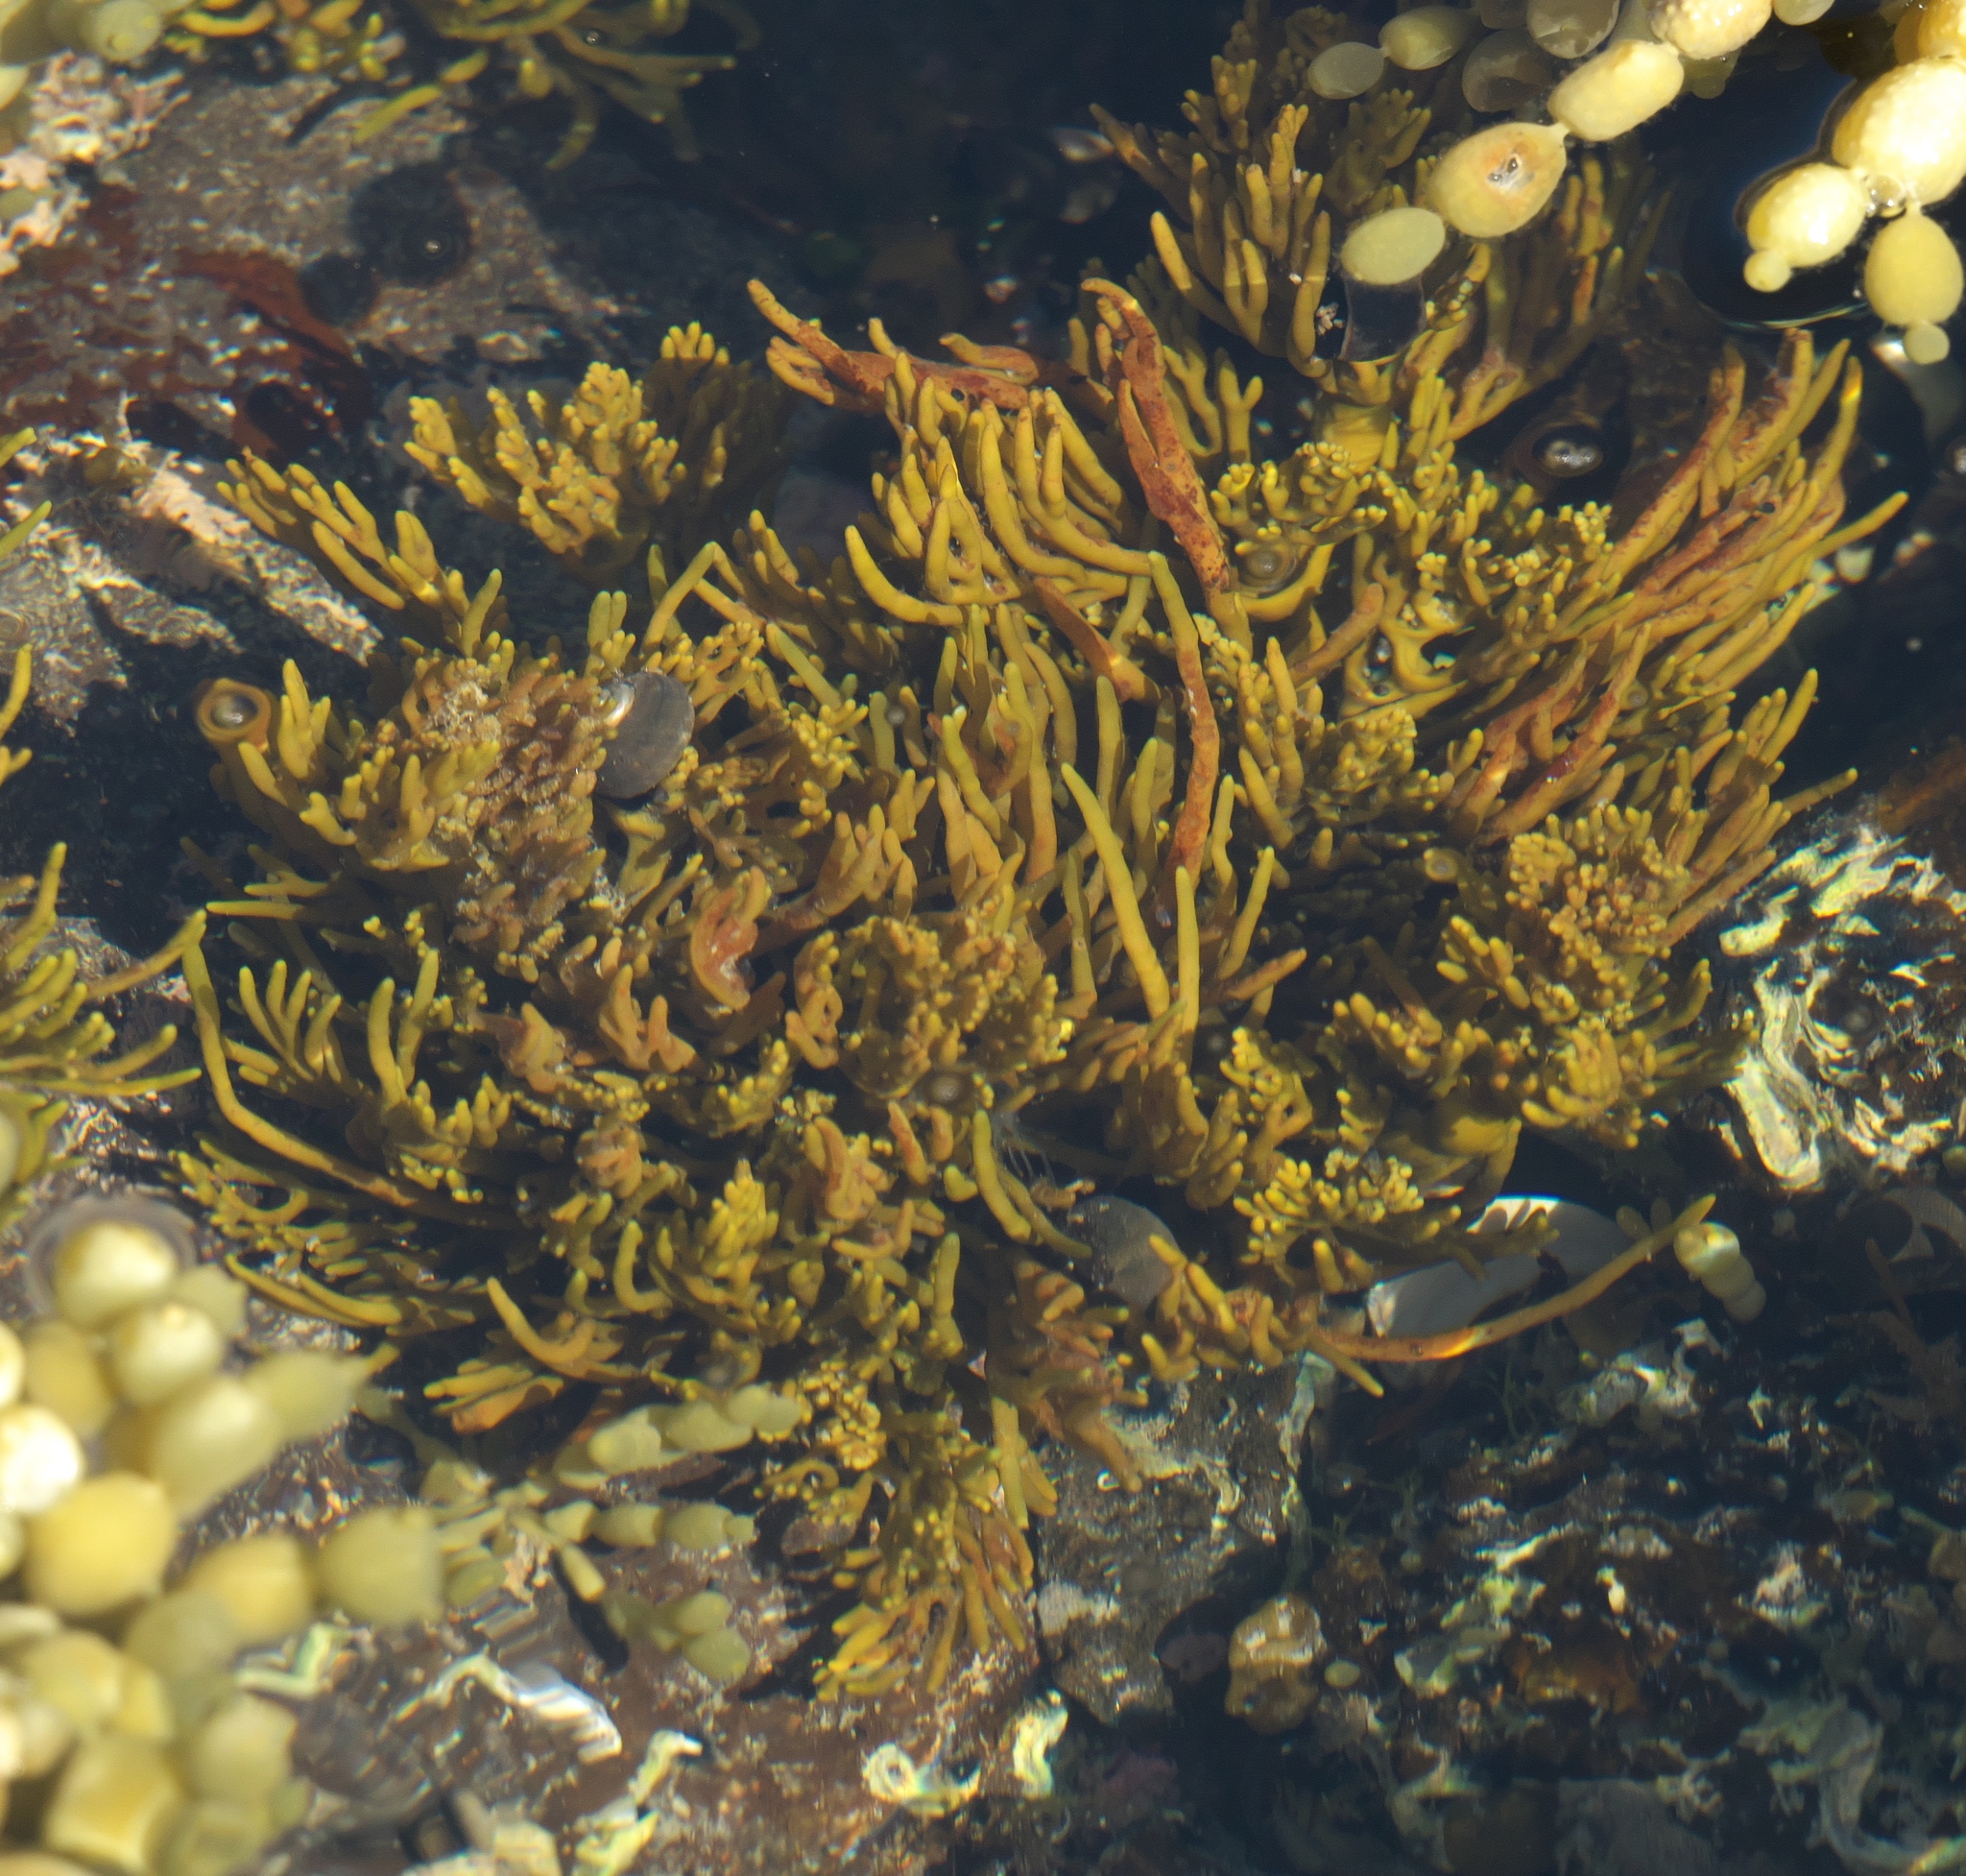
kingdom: Chromista
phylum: Ochrophyta
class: Phaeophyceae
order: Fucales
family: Sargassaceae
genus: Cystophora
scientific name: Cystophora torulosa
